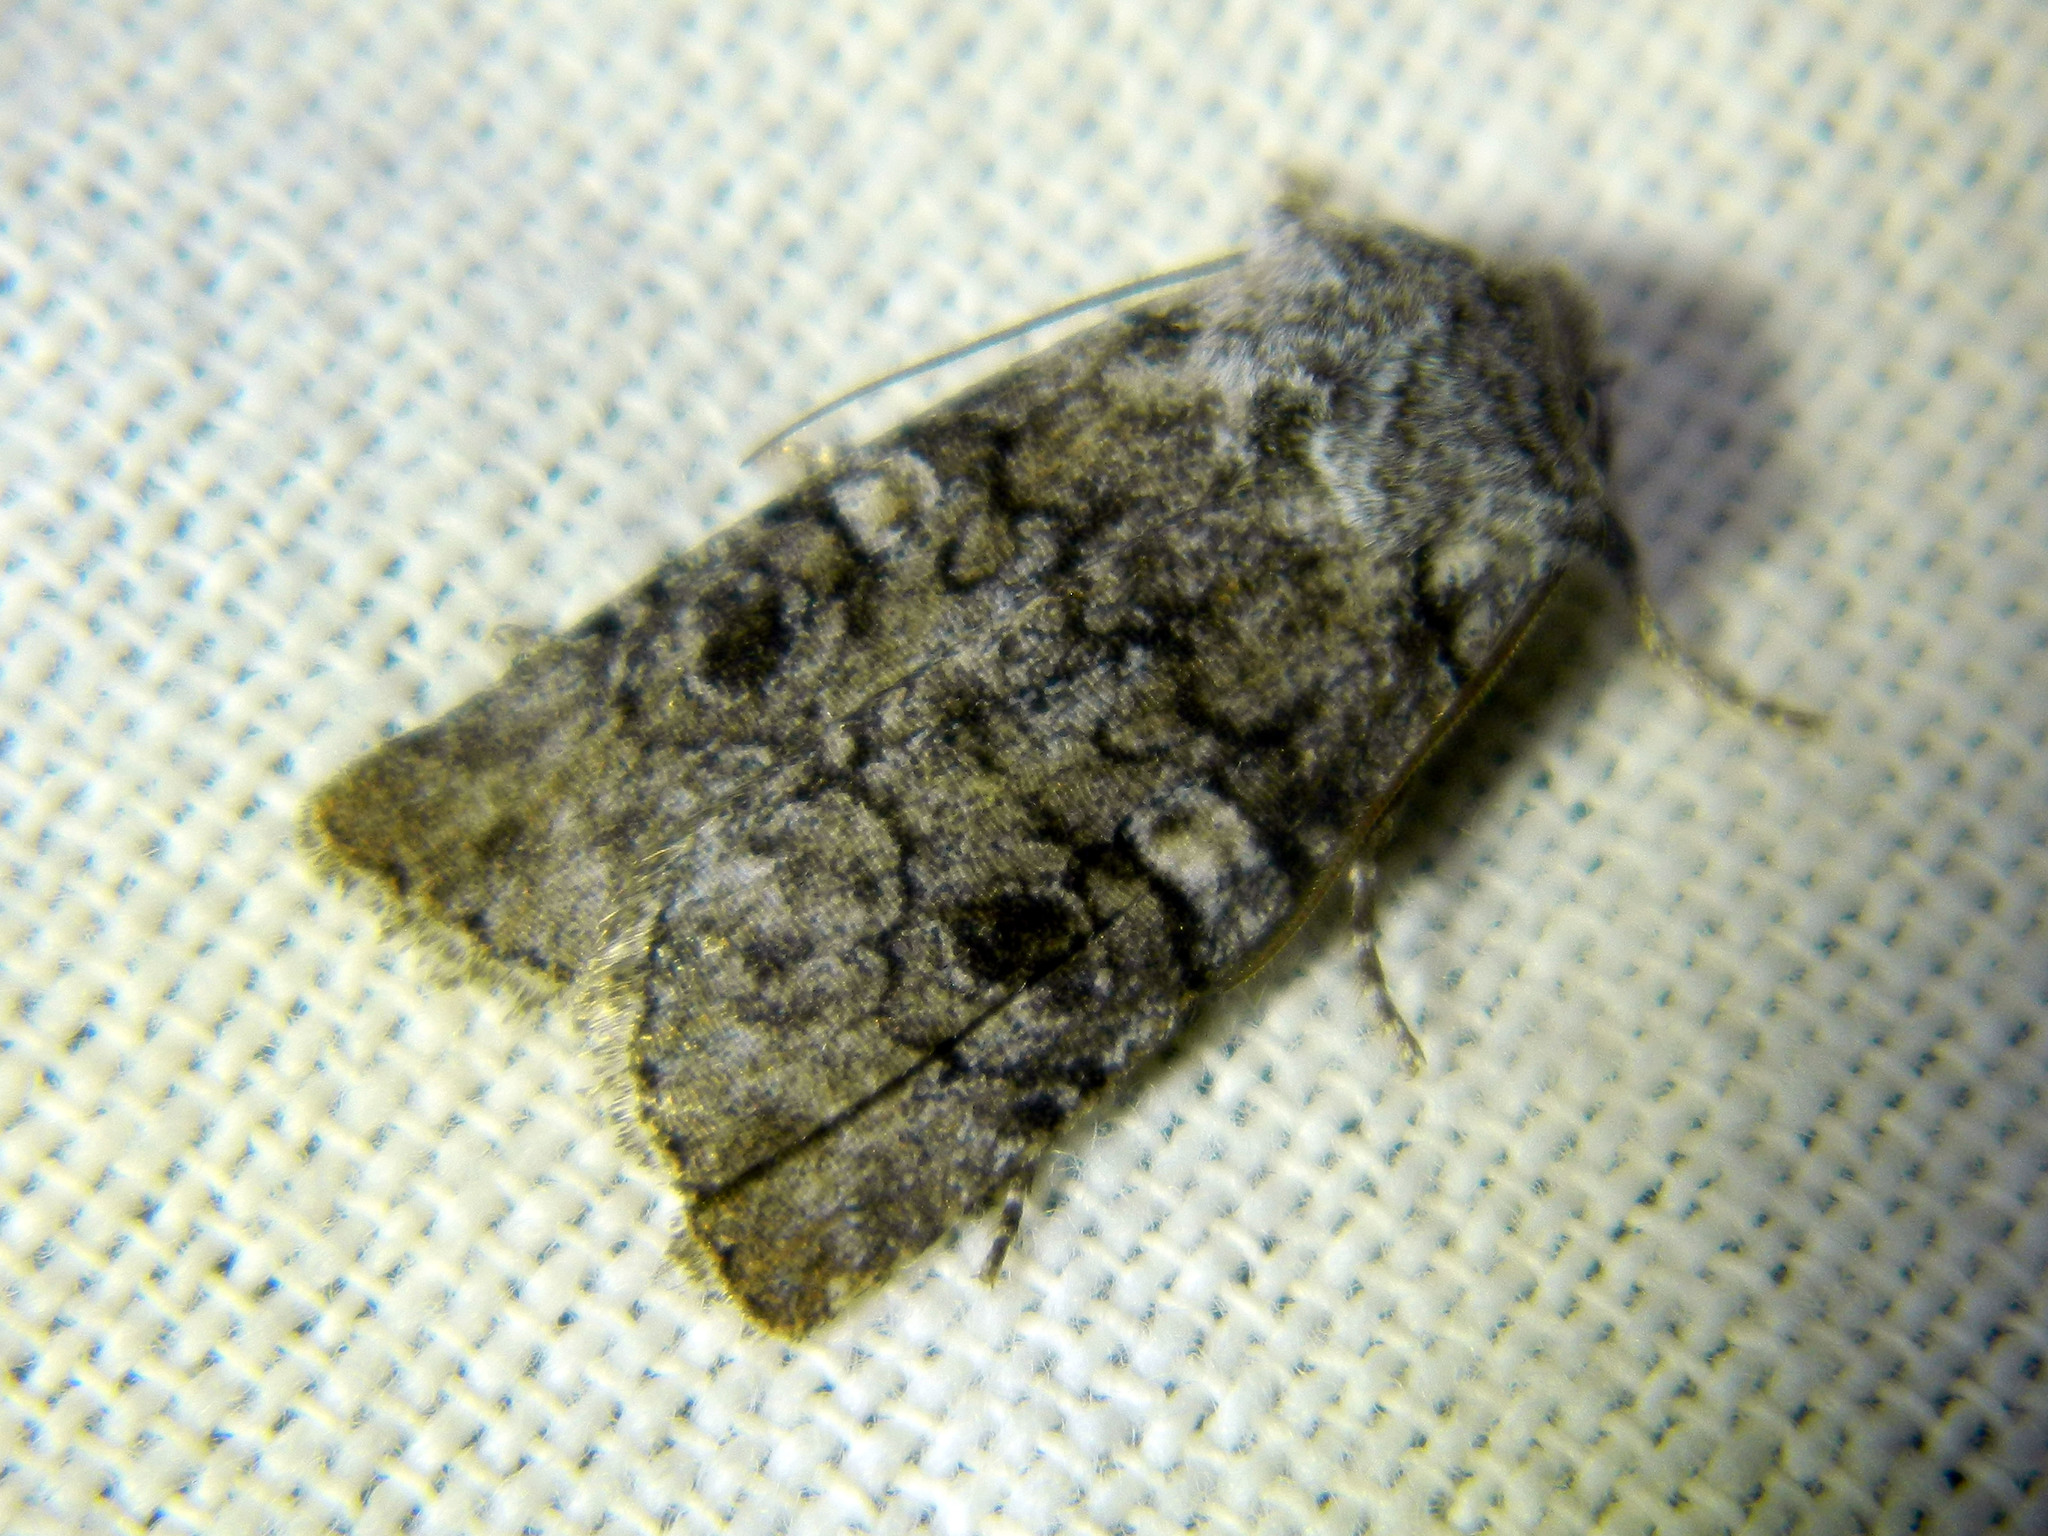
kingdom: Animalia
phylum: Arthropoda
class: Insecta
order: Lepidoptera
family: Noctuidae
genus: Litholomia
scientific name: Litholomia napaea
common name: False pinion moth
